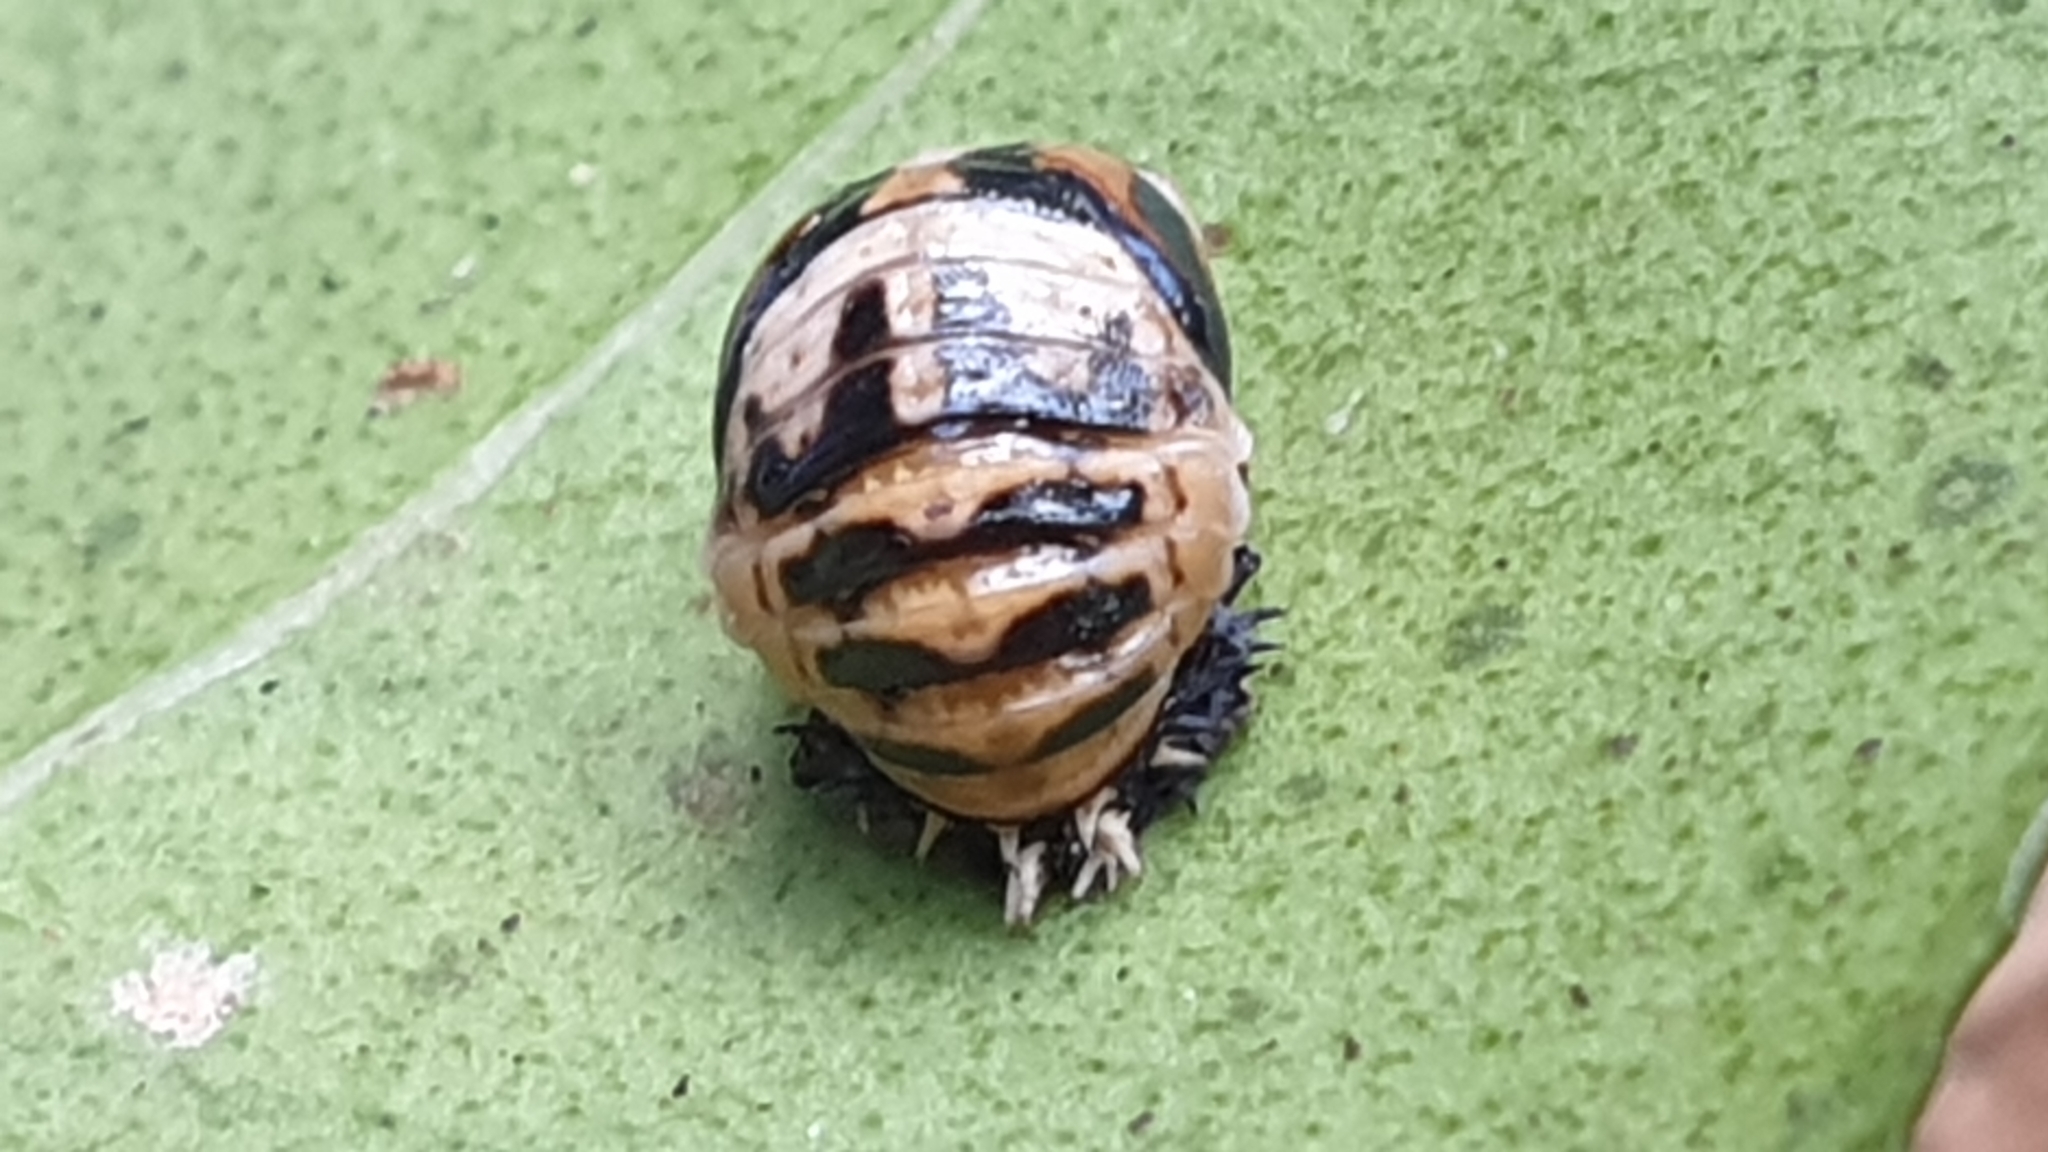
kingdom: Animalia
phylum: Arthropoda
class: Insecta
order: Coleoptera
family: Coccinellidae
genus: Harmonia
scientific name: Harmonia
